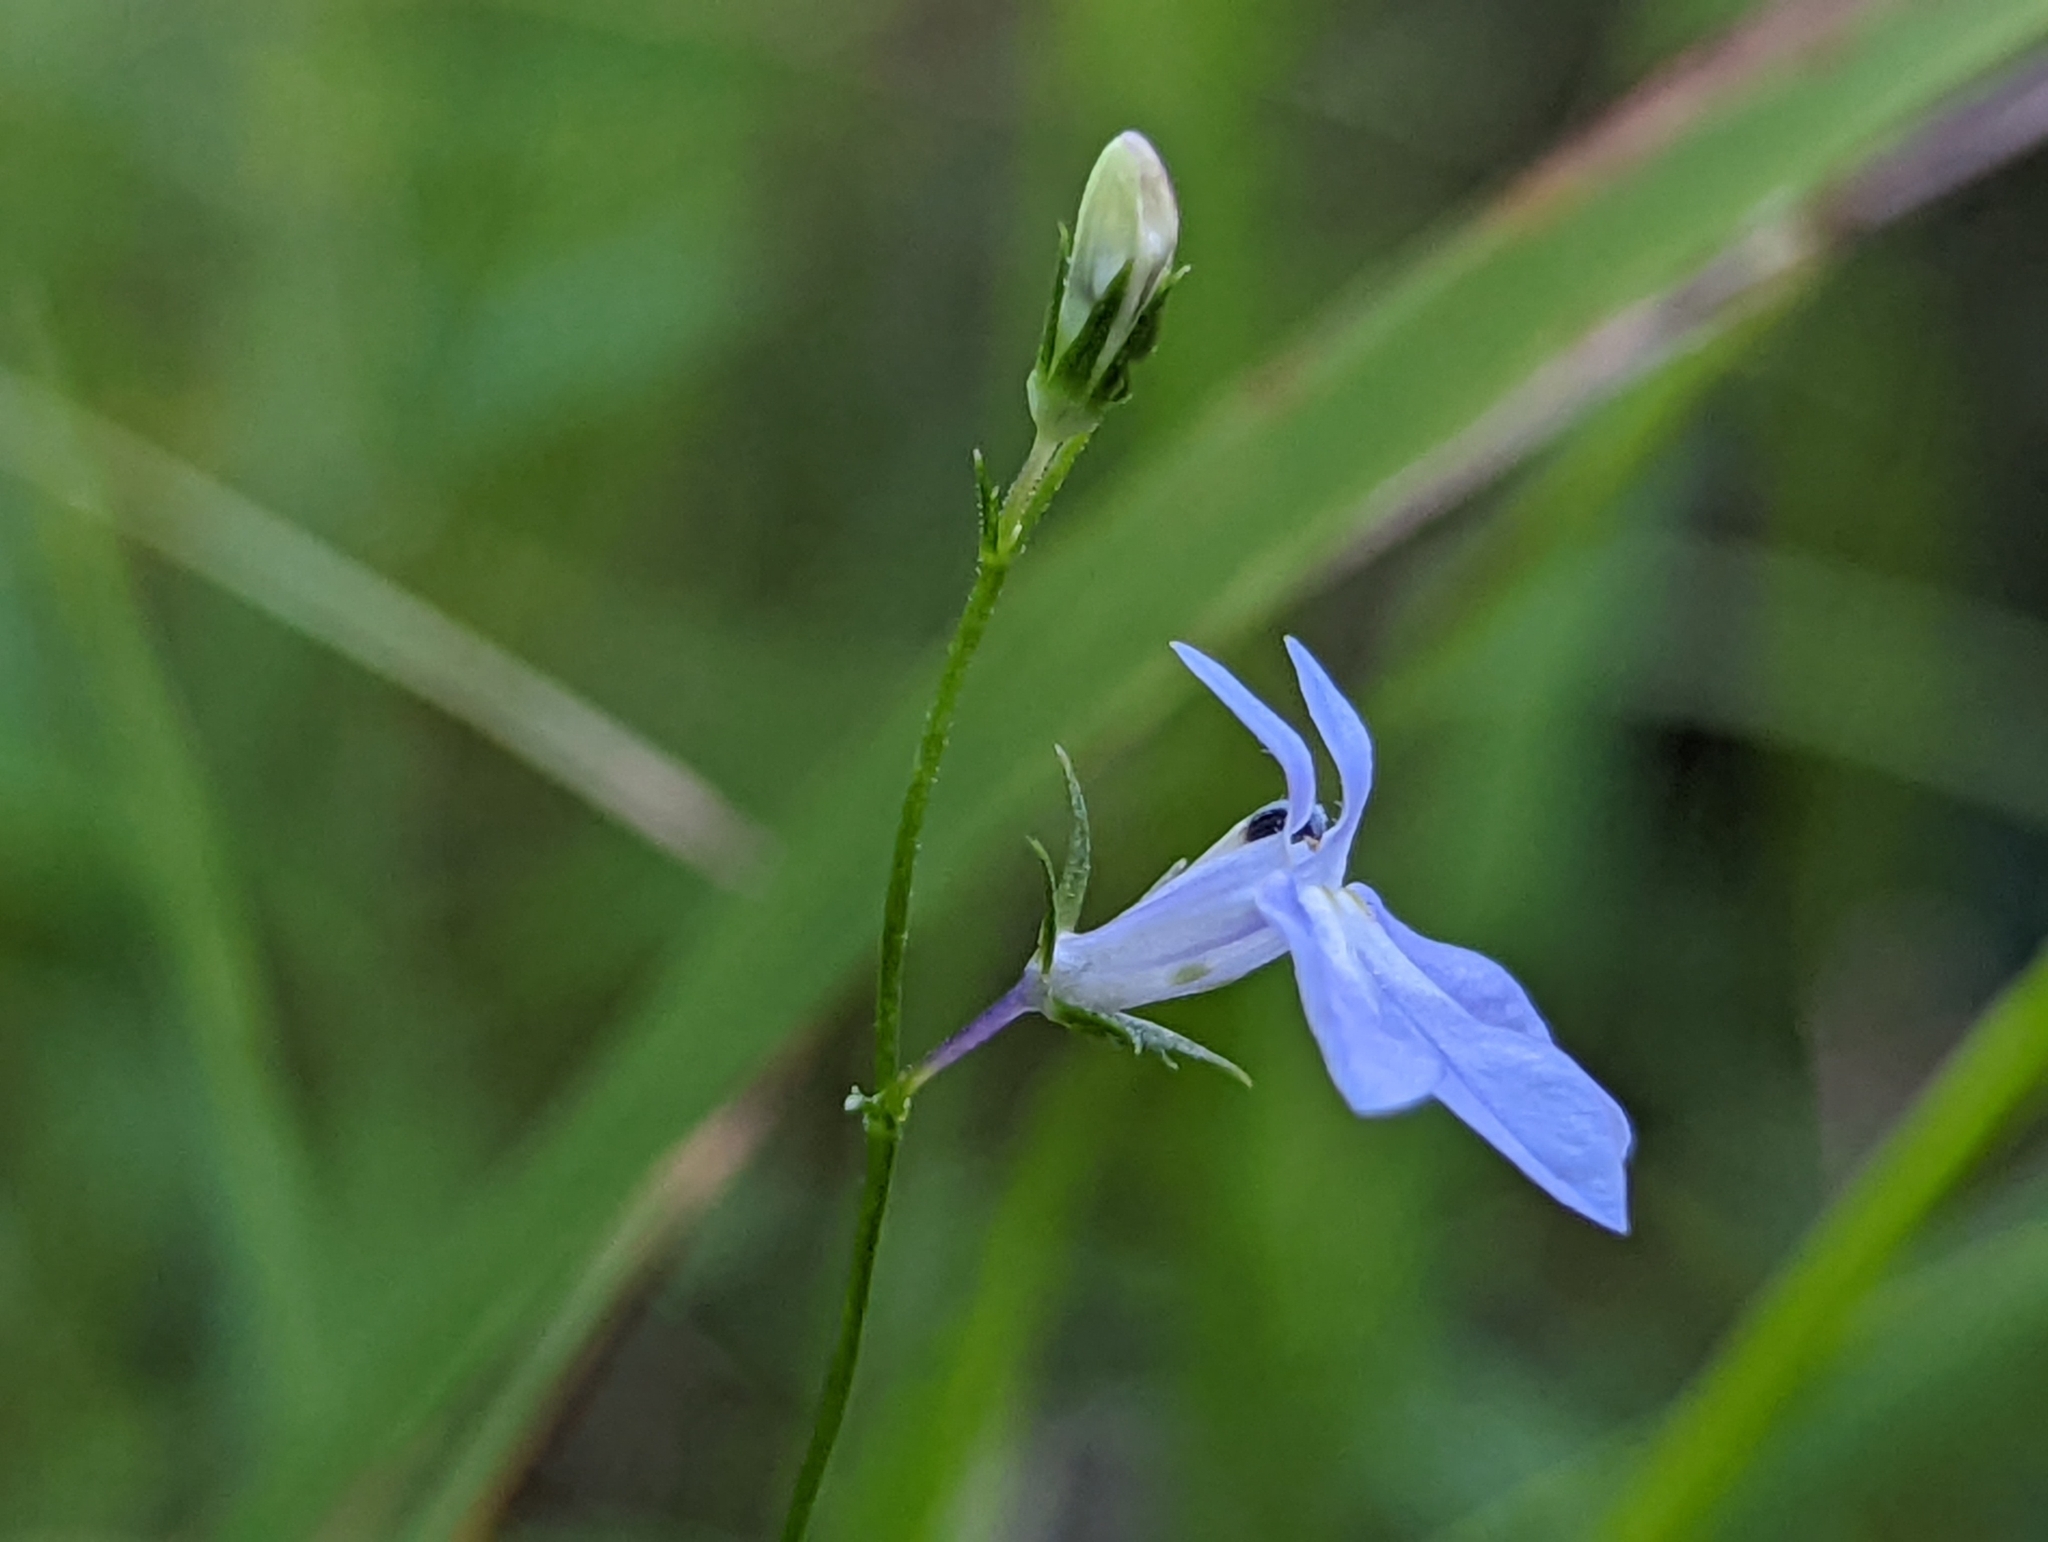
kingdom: Plantae
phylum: Tracheophyta
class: Magnoliopsida
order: Asterales
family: Campanulaceae
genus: Lobelia
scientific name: Lobelia nuttallii
